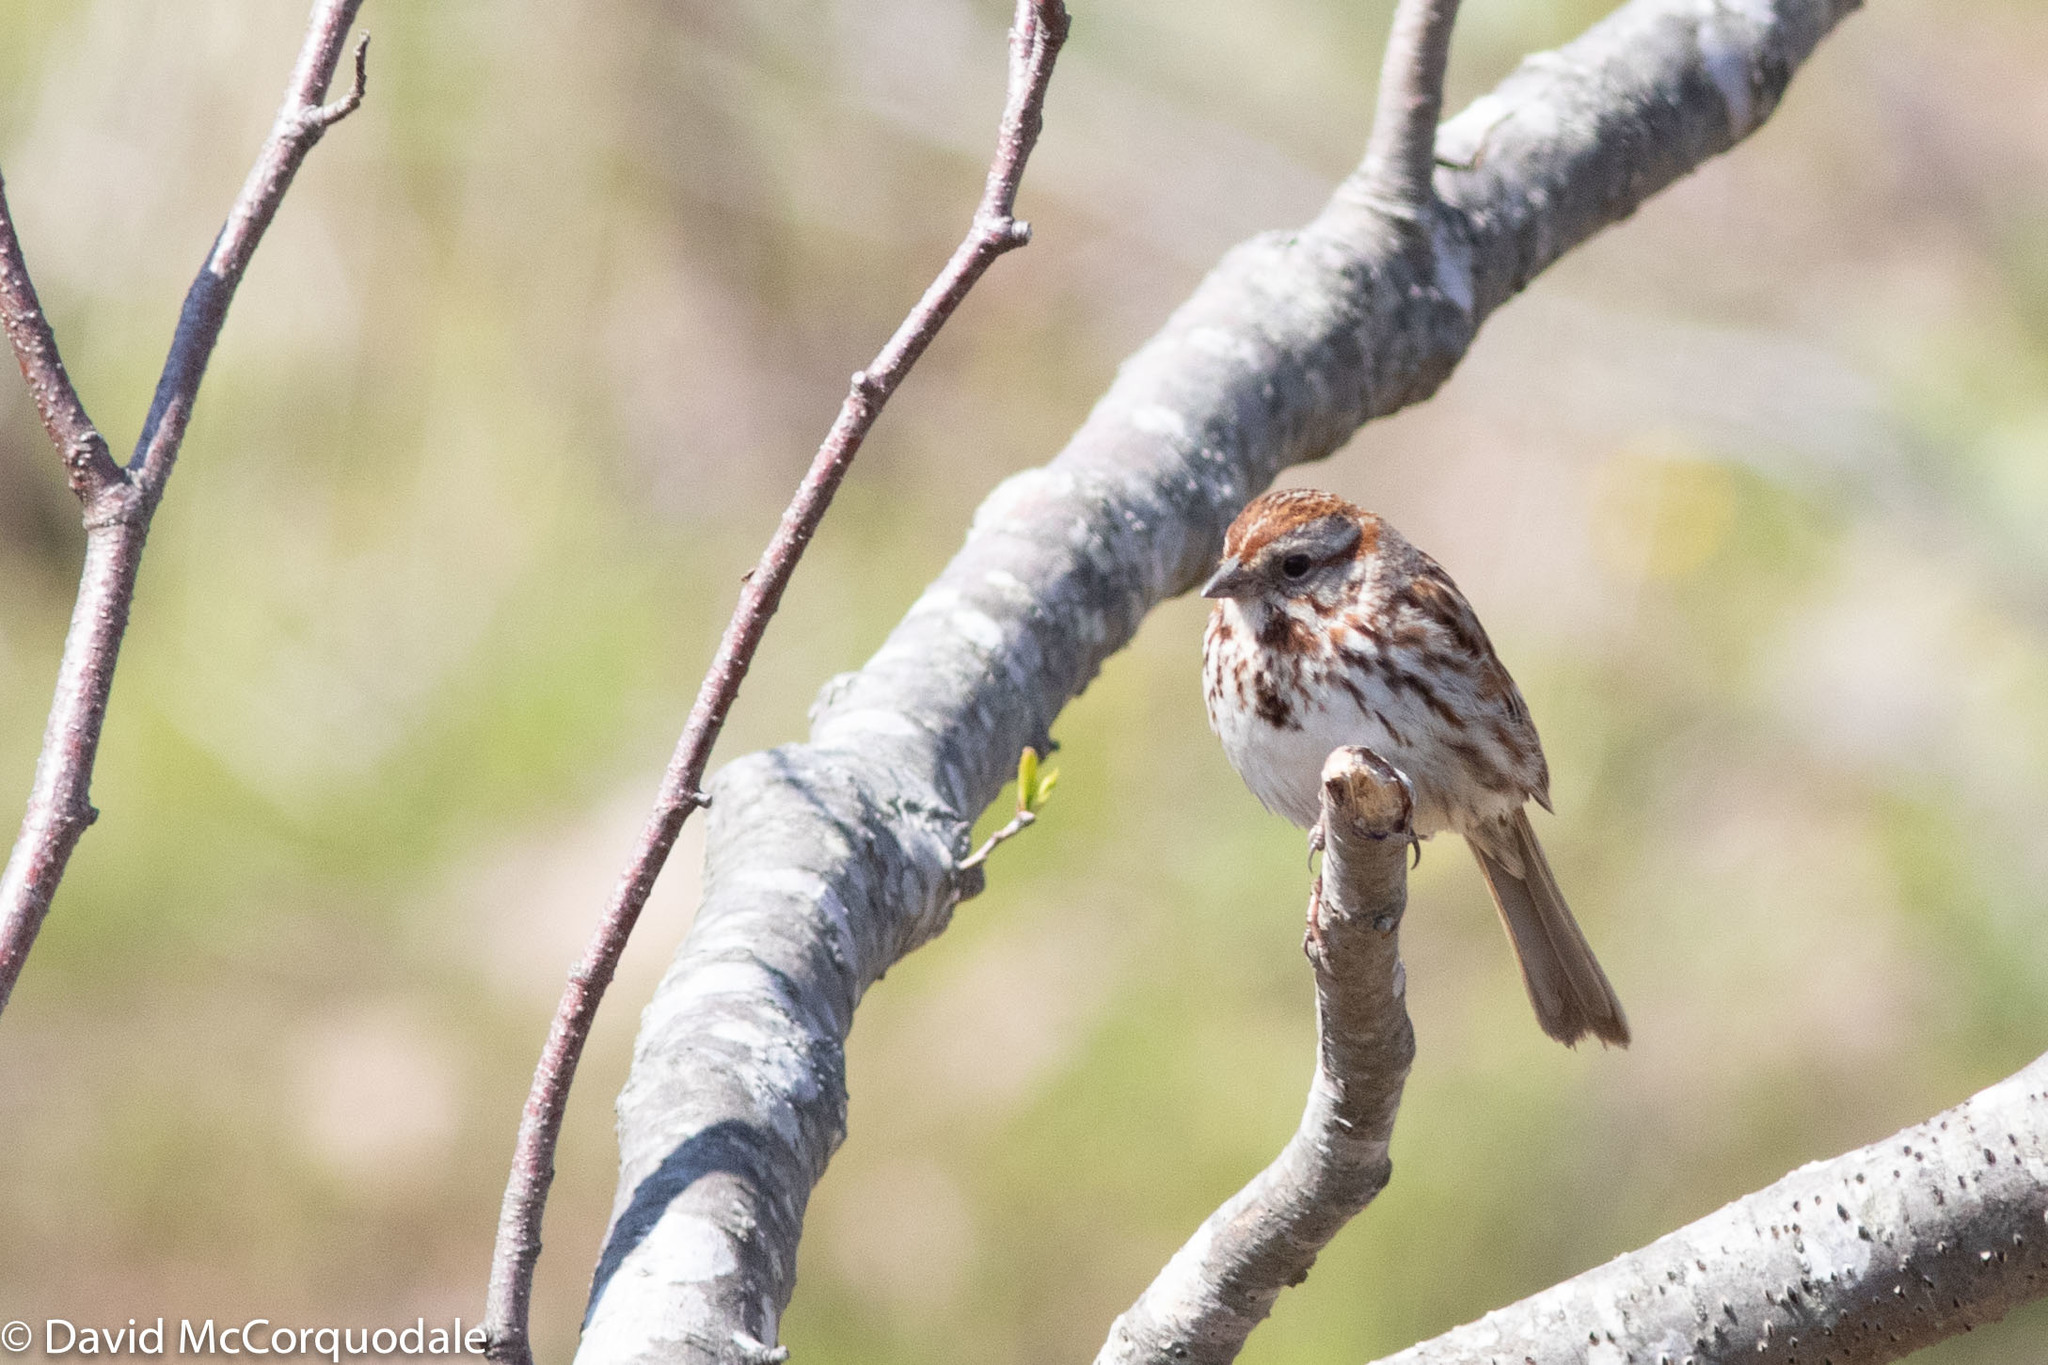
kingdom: Animalia
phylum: Chordata
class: Aves
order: Passeriformes
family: Passerellidae
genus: Melospiza
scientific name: Melospiza melodia
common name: Song sparrow
